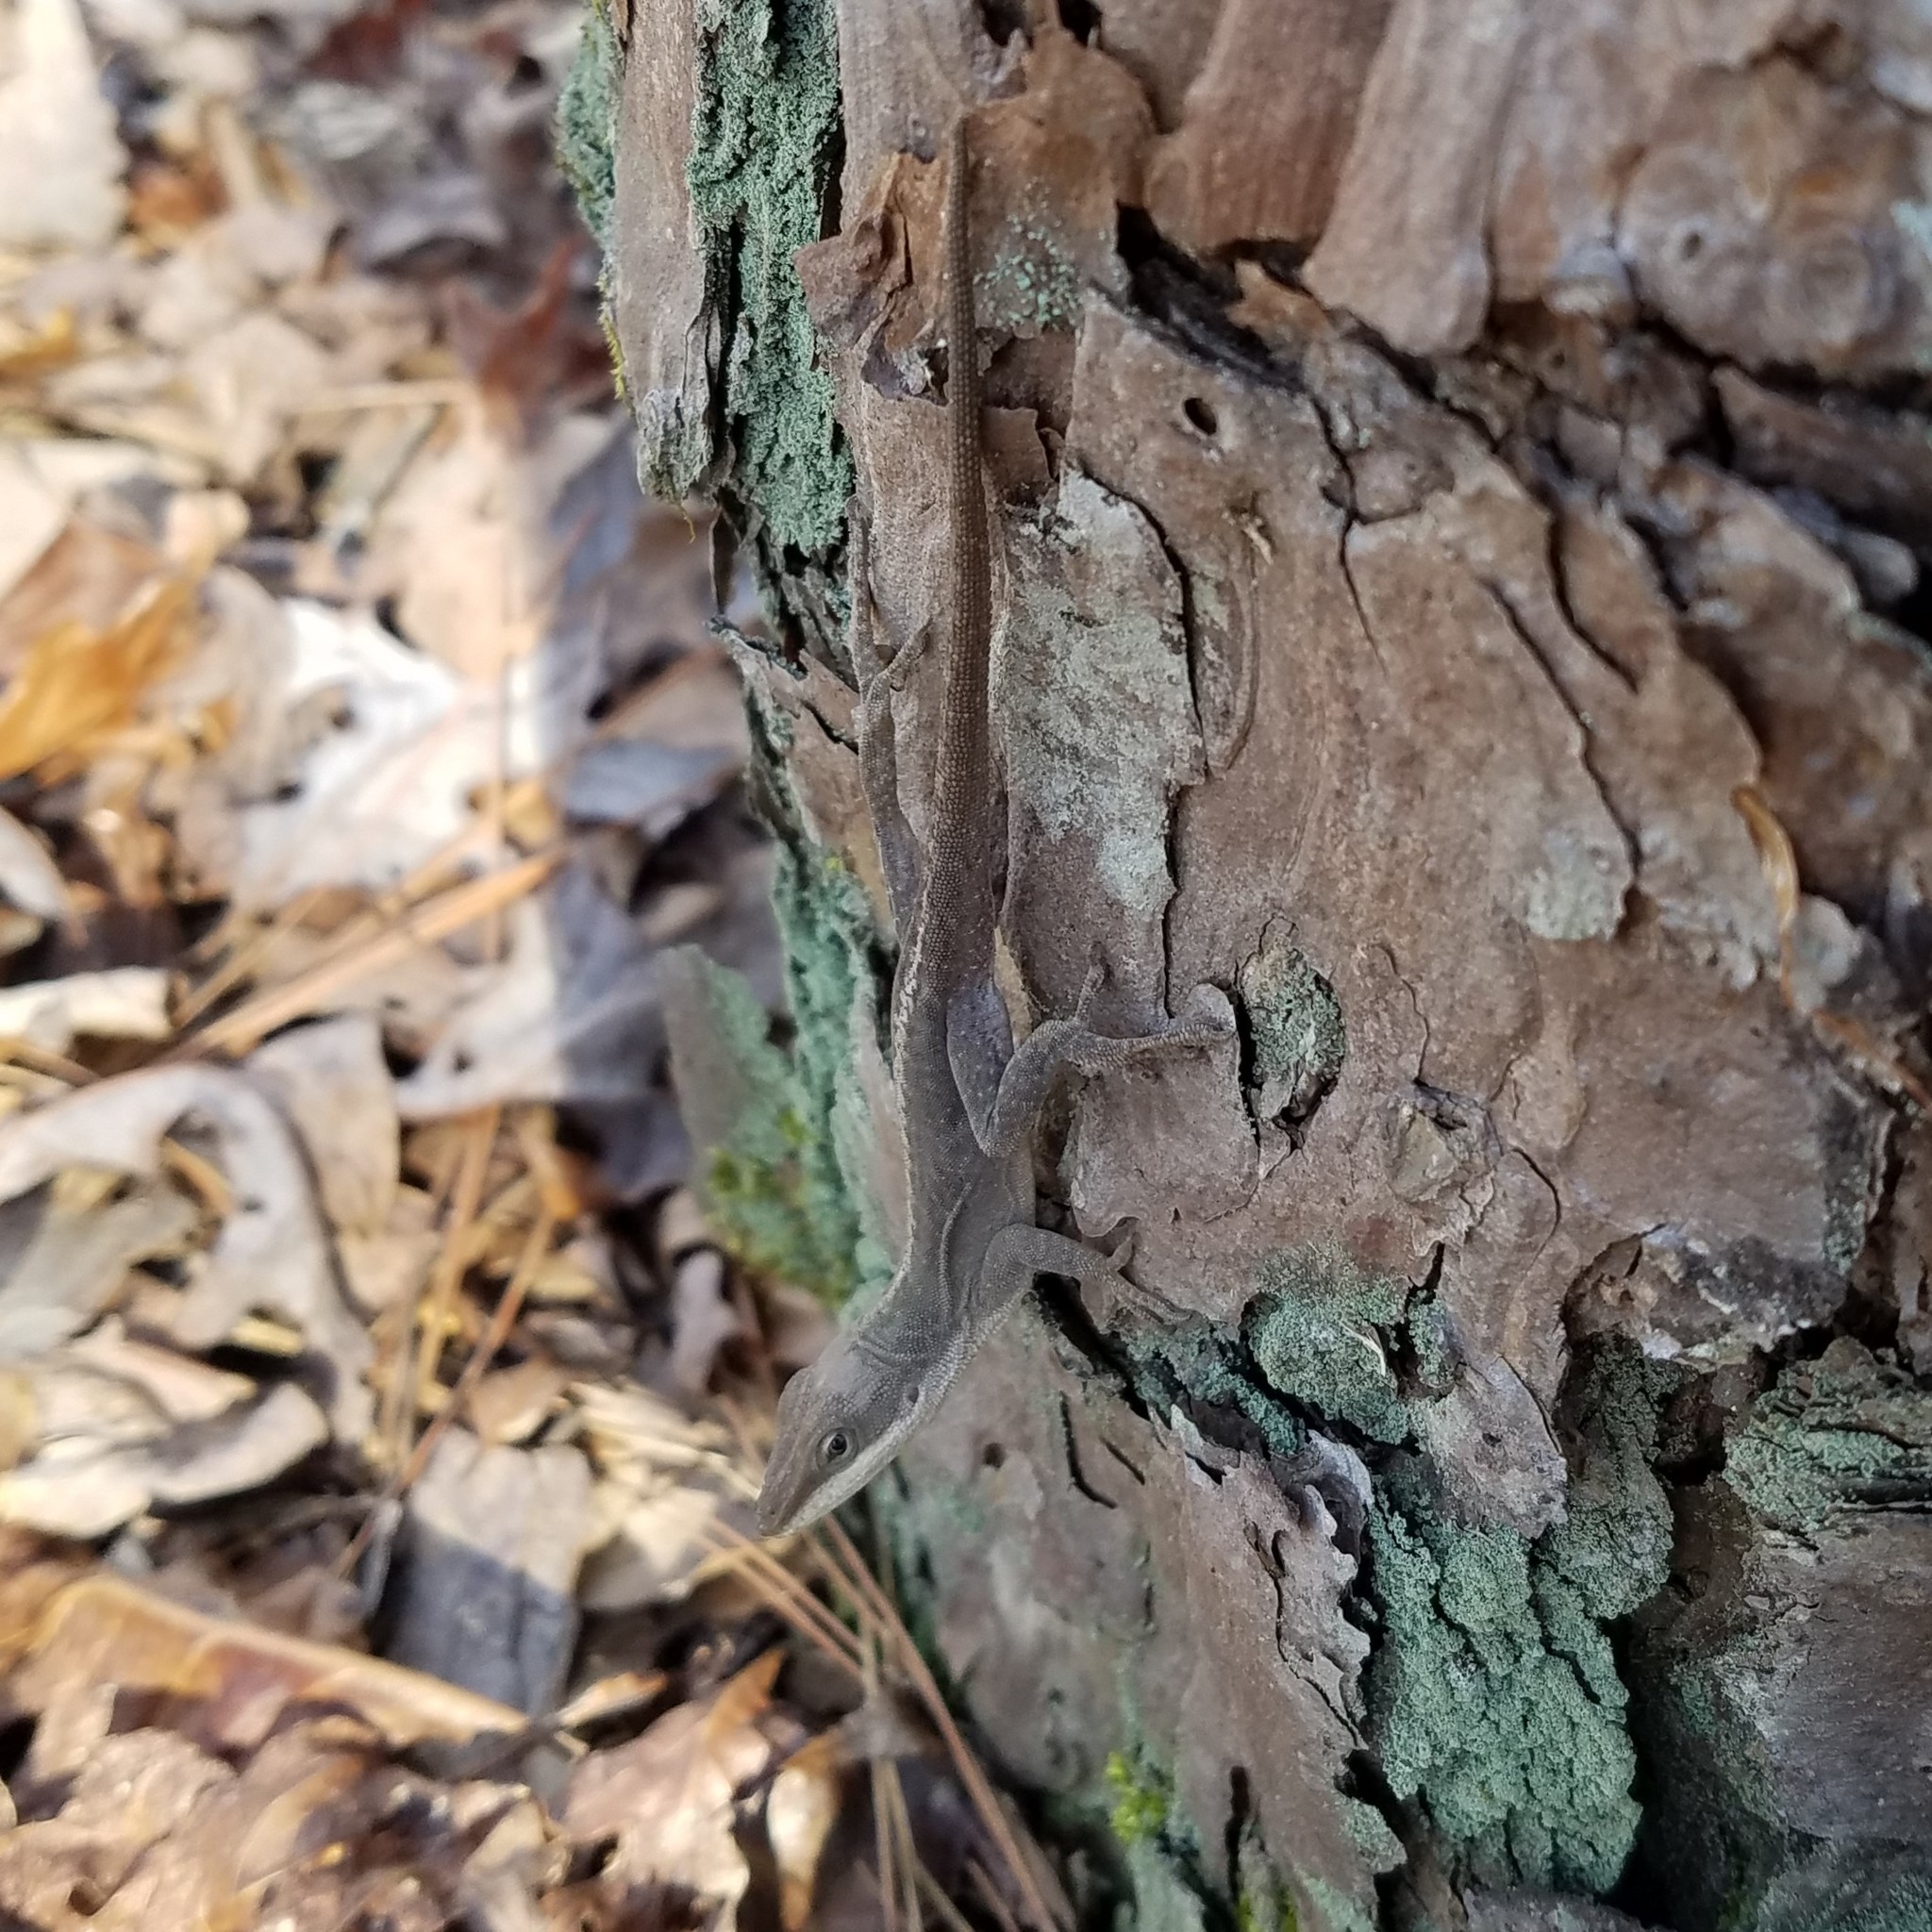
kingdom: Animalia
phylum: Chordata
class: Squamata
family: Dactyloidae
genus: Anolis
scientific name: Anolis carolinensis
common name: Green anole
